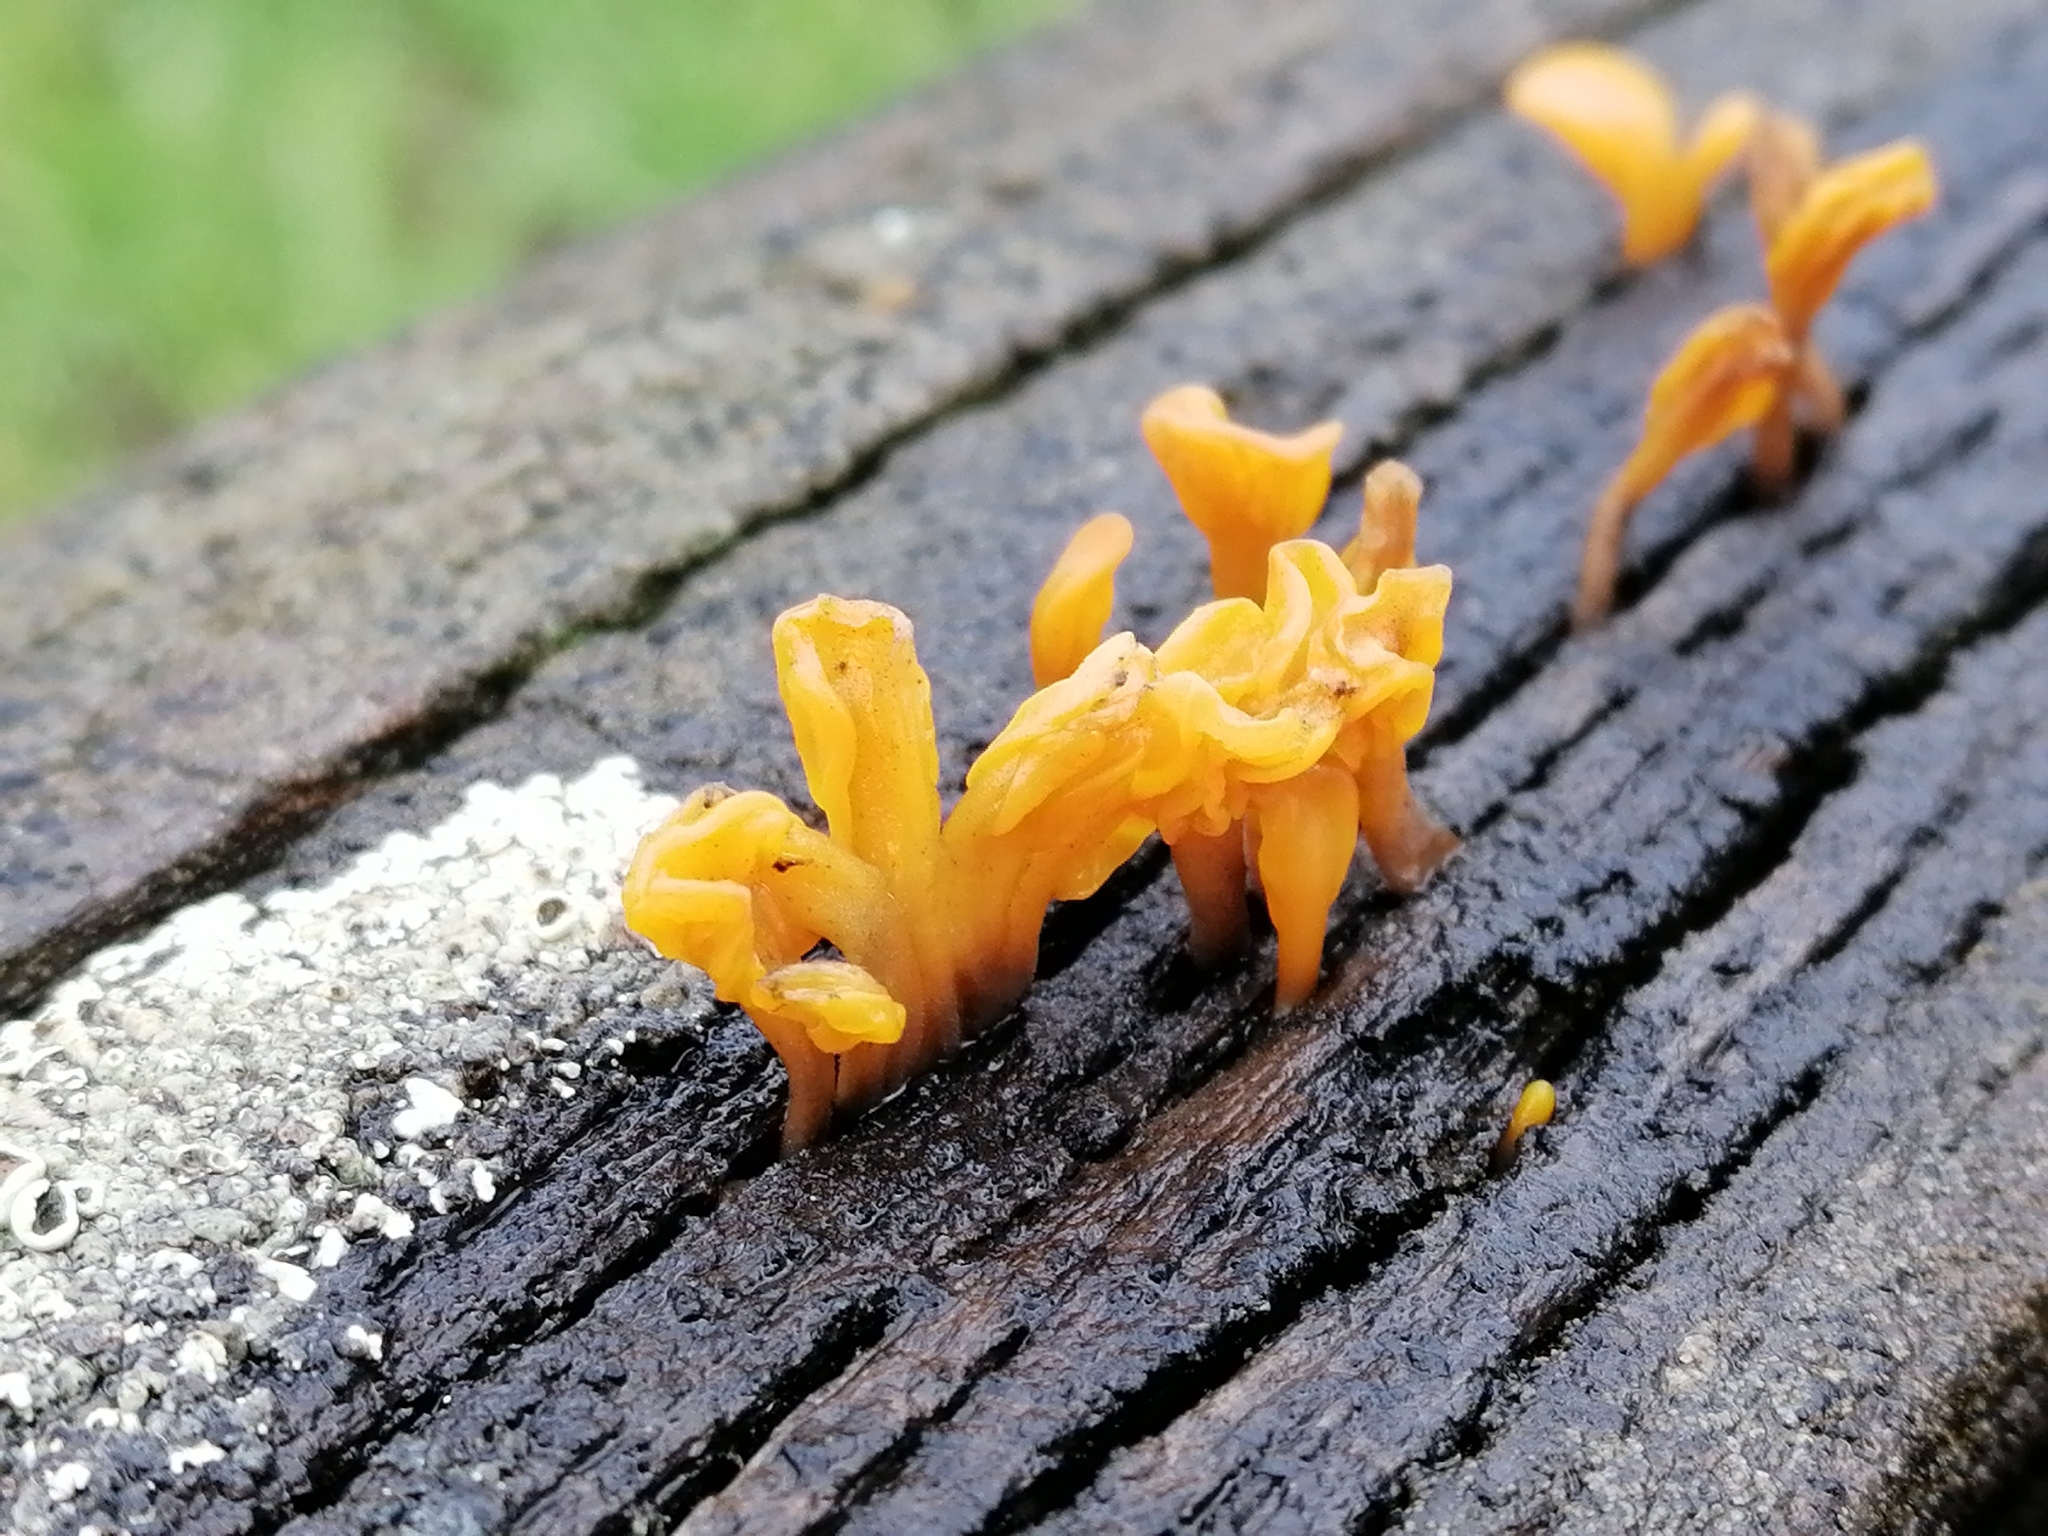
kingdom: Fungi
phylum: Basidiomycota
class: Dacrymycetes
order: Dacrymycetales
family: Dacrymycetaceae
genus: Dacrymyces
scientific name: Dacrymyces spathularius
